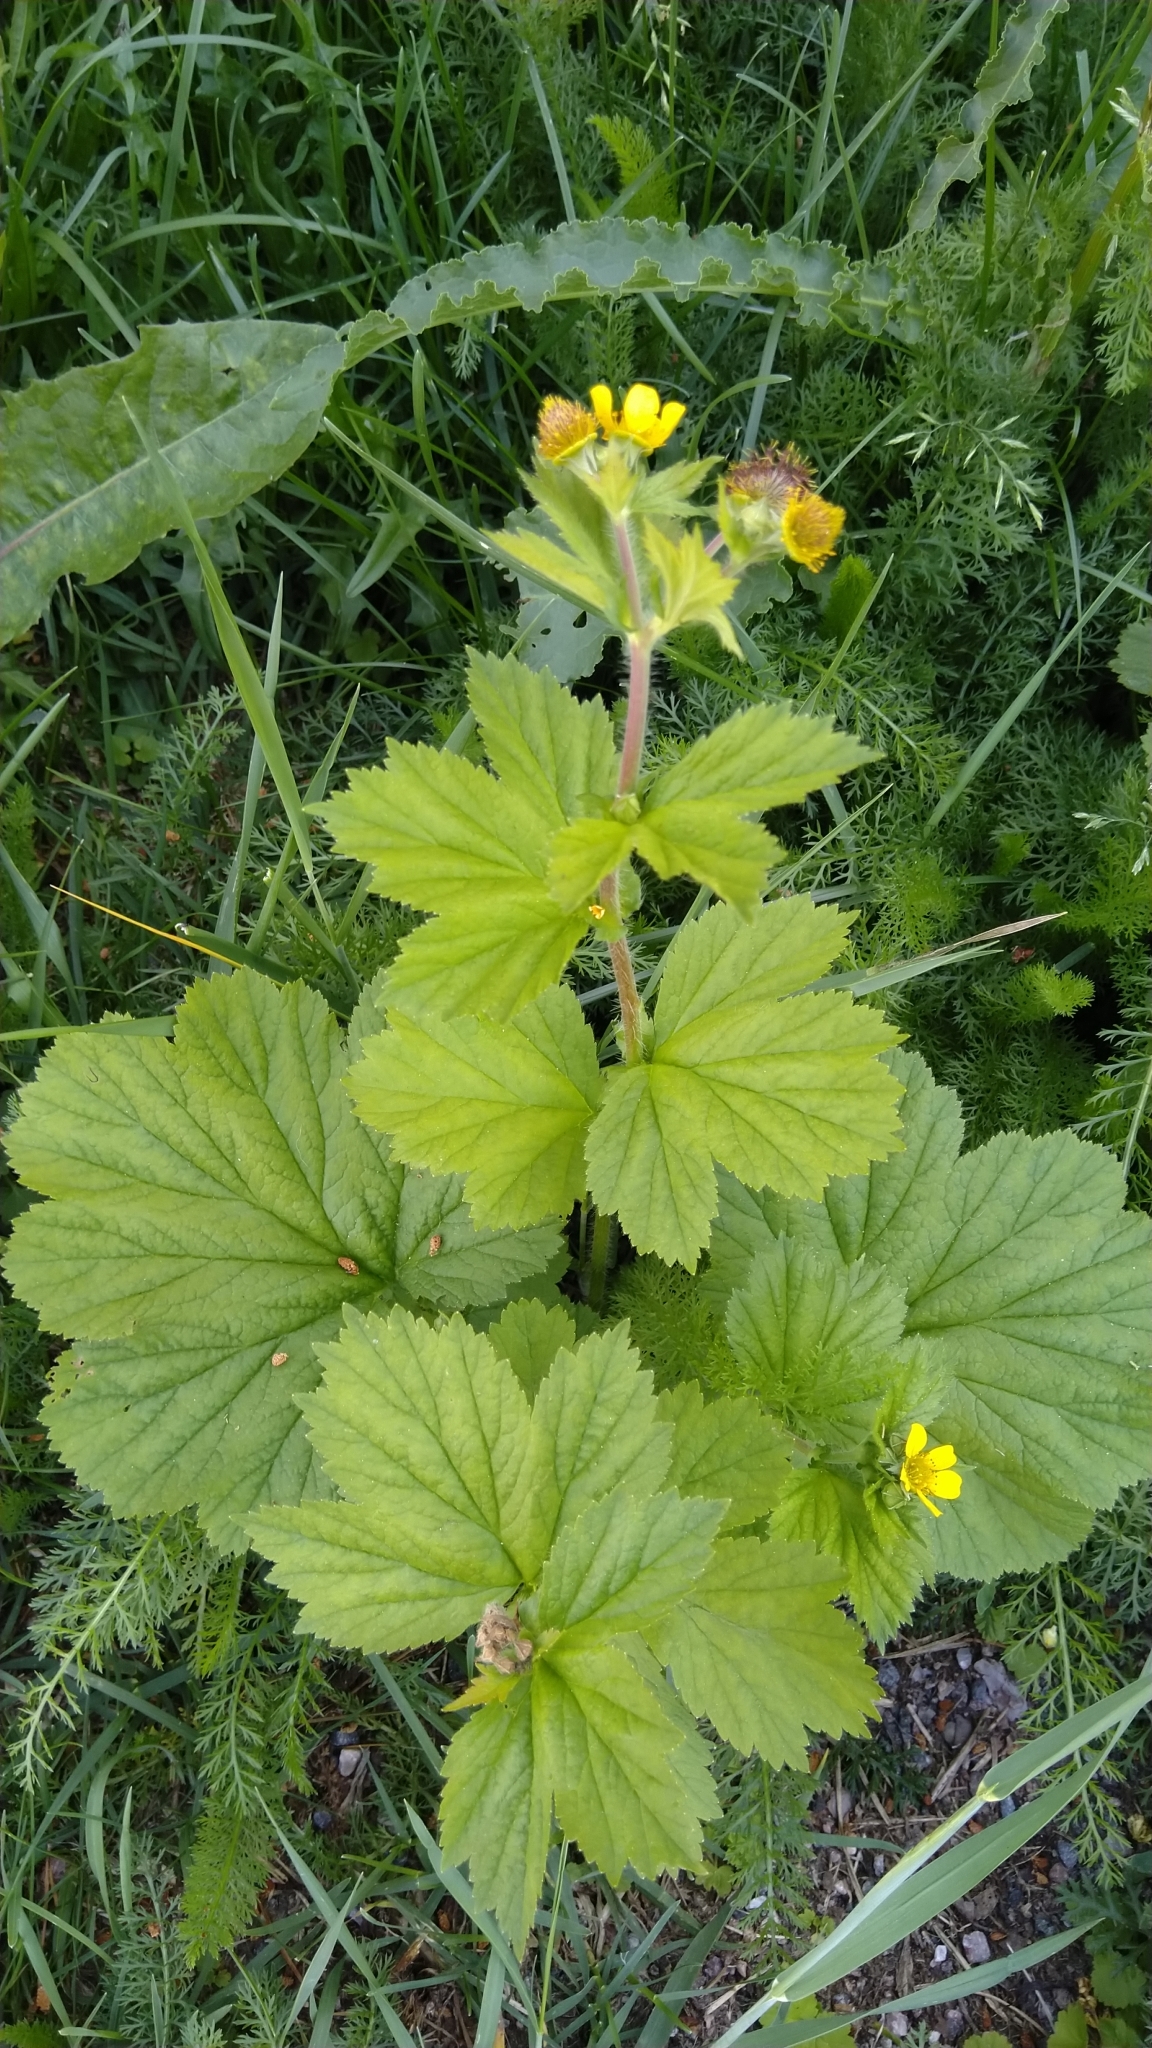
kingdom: Plantae
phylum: Tracheophyta
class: Magnoliopsida
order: Rosales
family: Rosaceae
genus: Geum
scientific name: Geum macrophyllum
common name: Large-leaved avens
